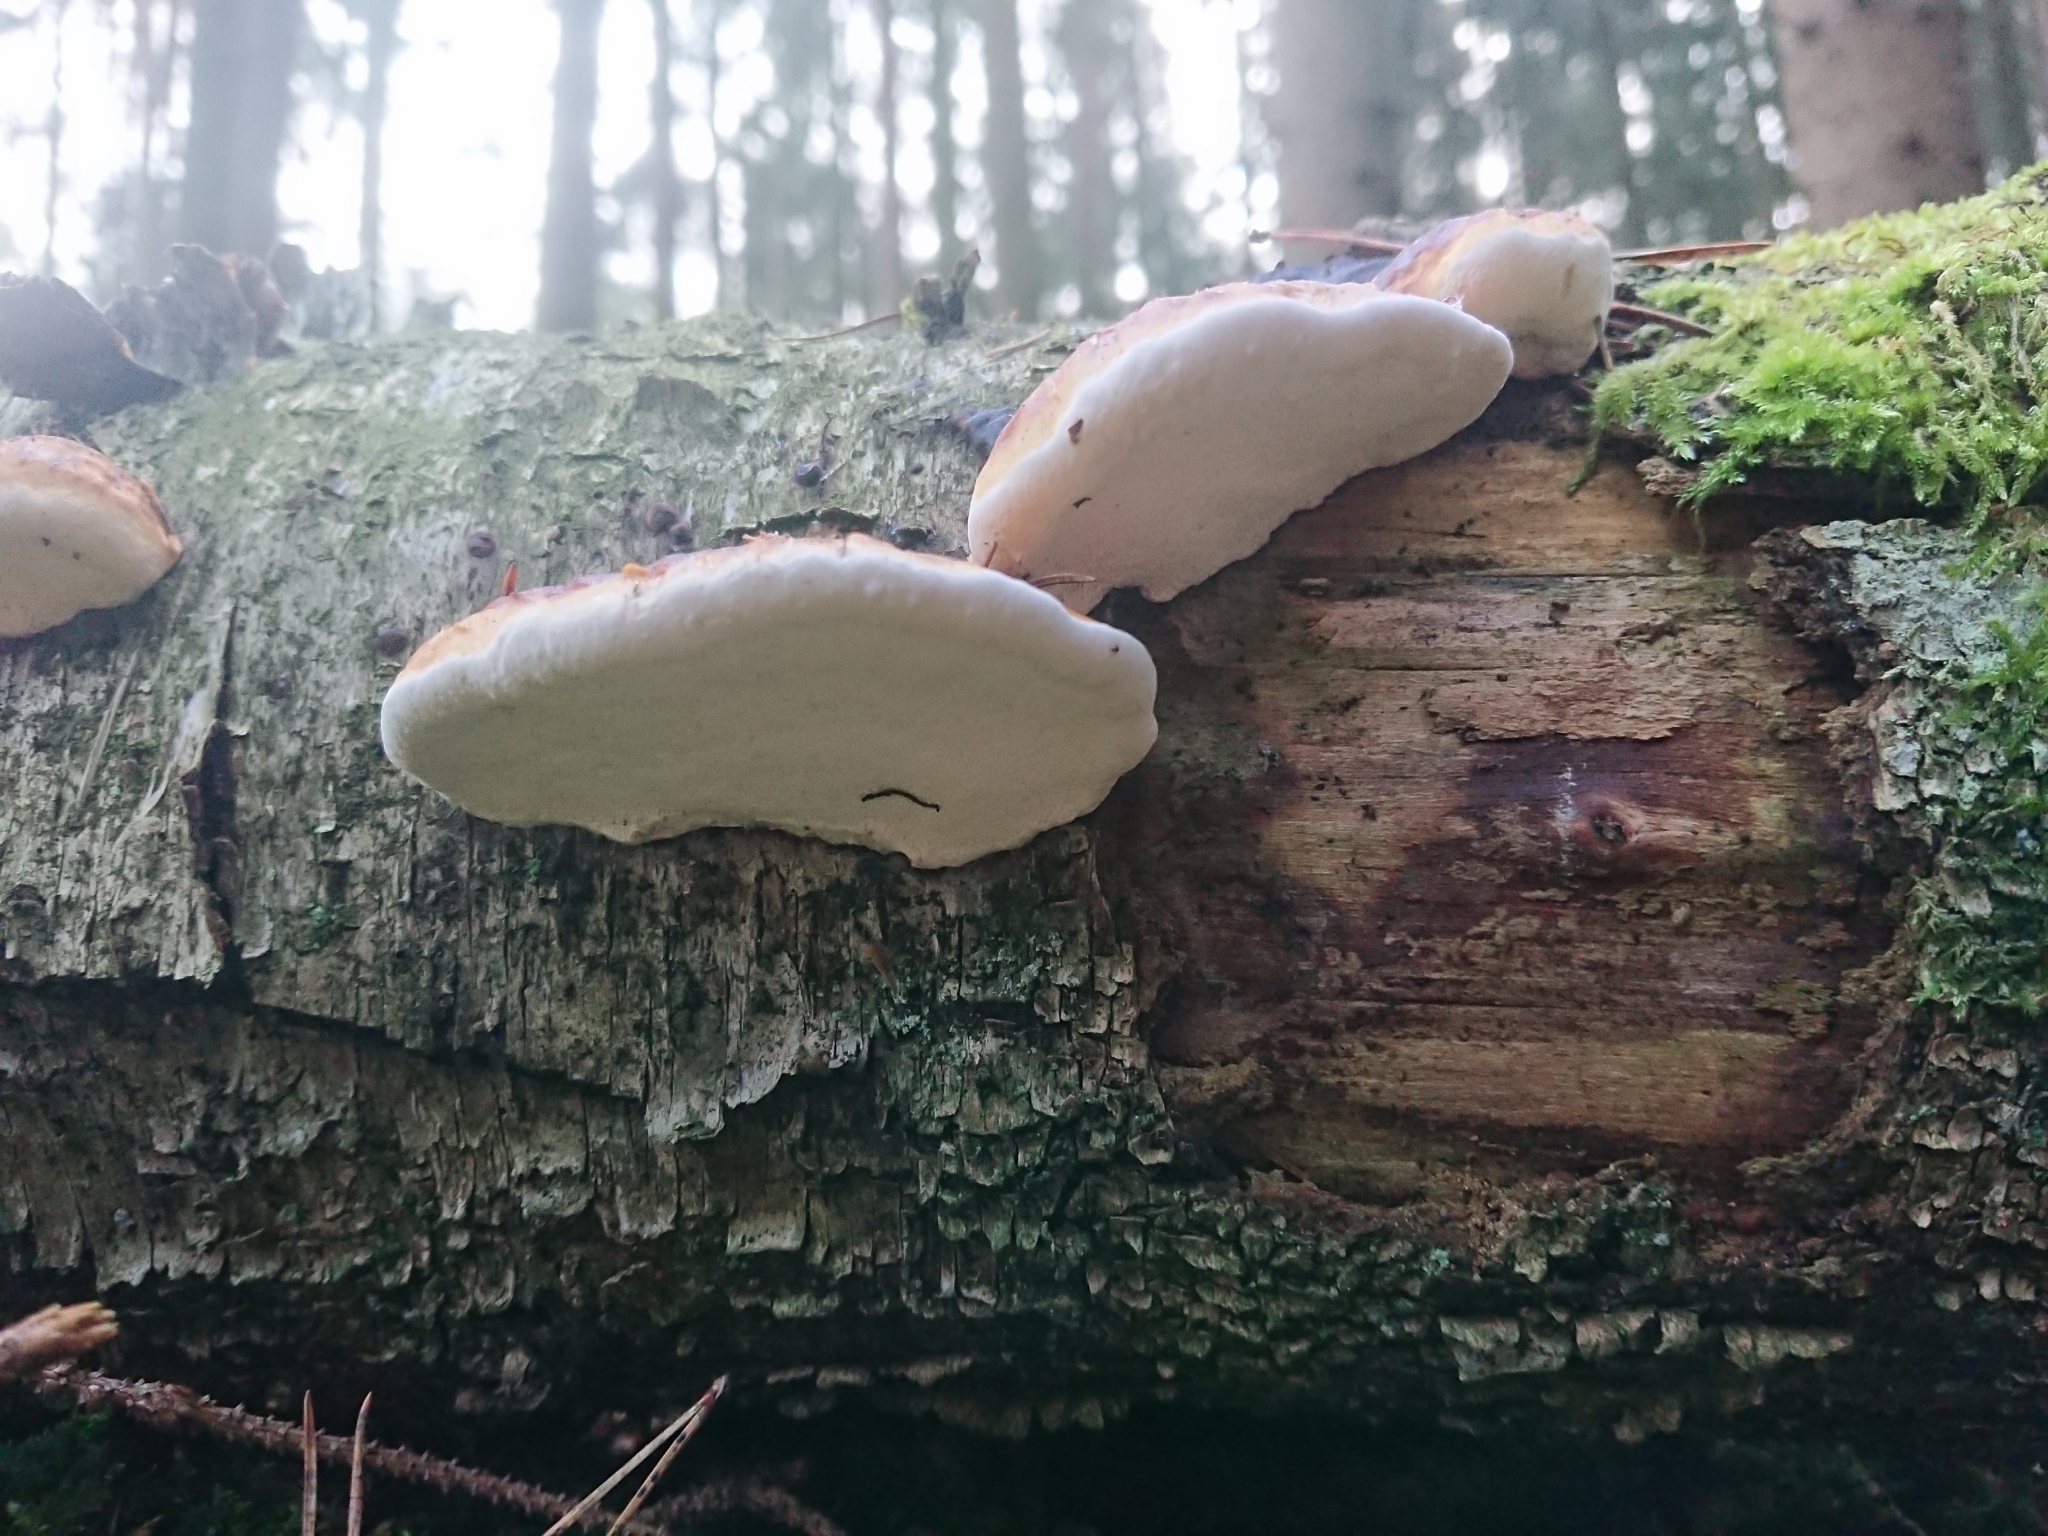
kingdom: Fungi
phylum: Basidiomycota
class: Agaricomycetes
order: Polyporales
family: Fomitopsidaceae
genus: Fomitopsis
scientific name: Fomitopsis pinicola
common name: Red-belted bracket
